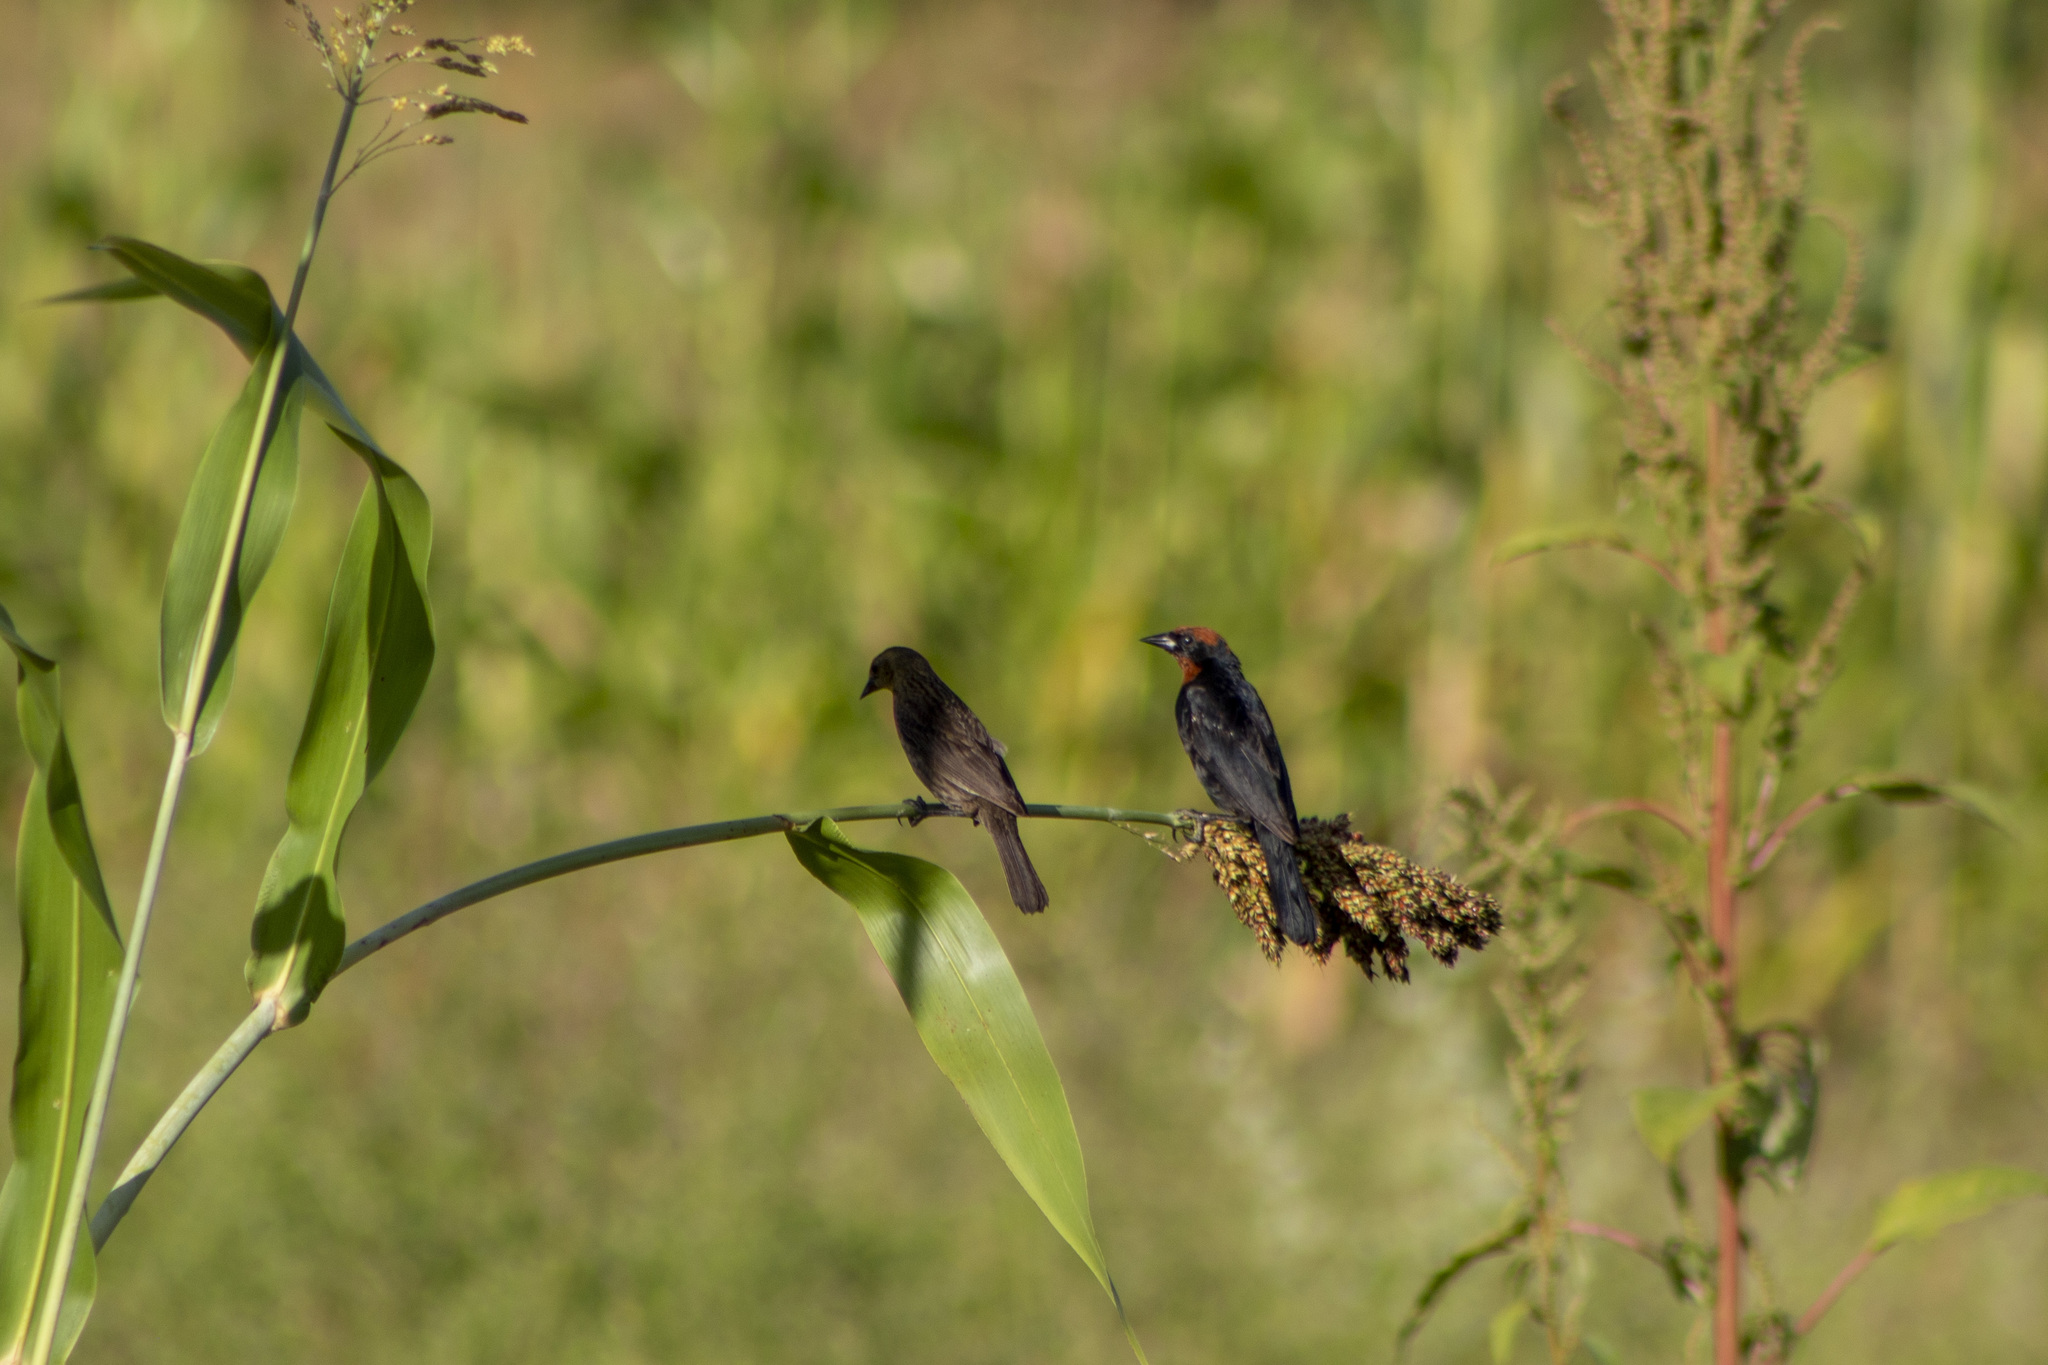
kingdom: Animalia
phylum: Chordata
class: Aves
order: Passeriformes
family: Icteridae
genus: Chrysomus
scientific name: Chrysomus ruficapillus
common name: Chestnut-capped blackbird
